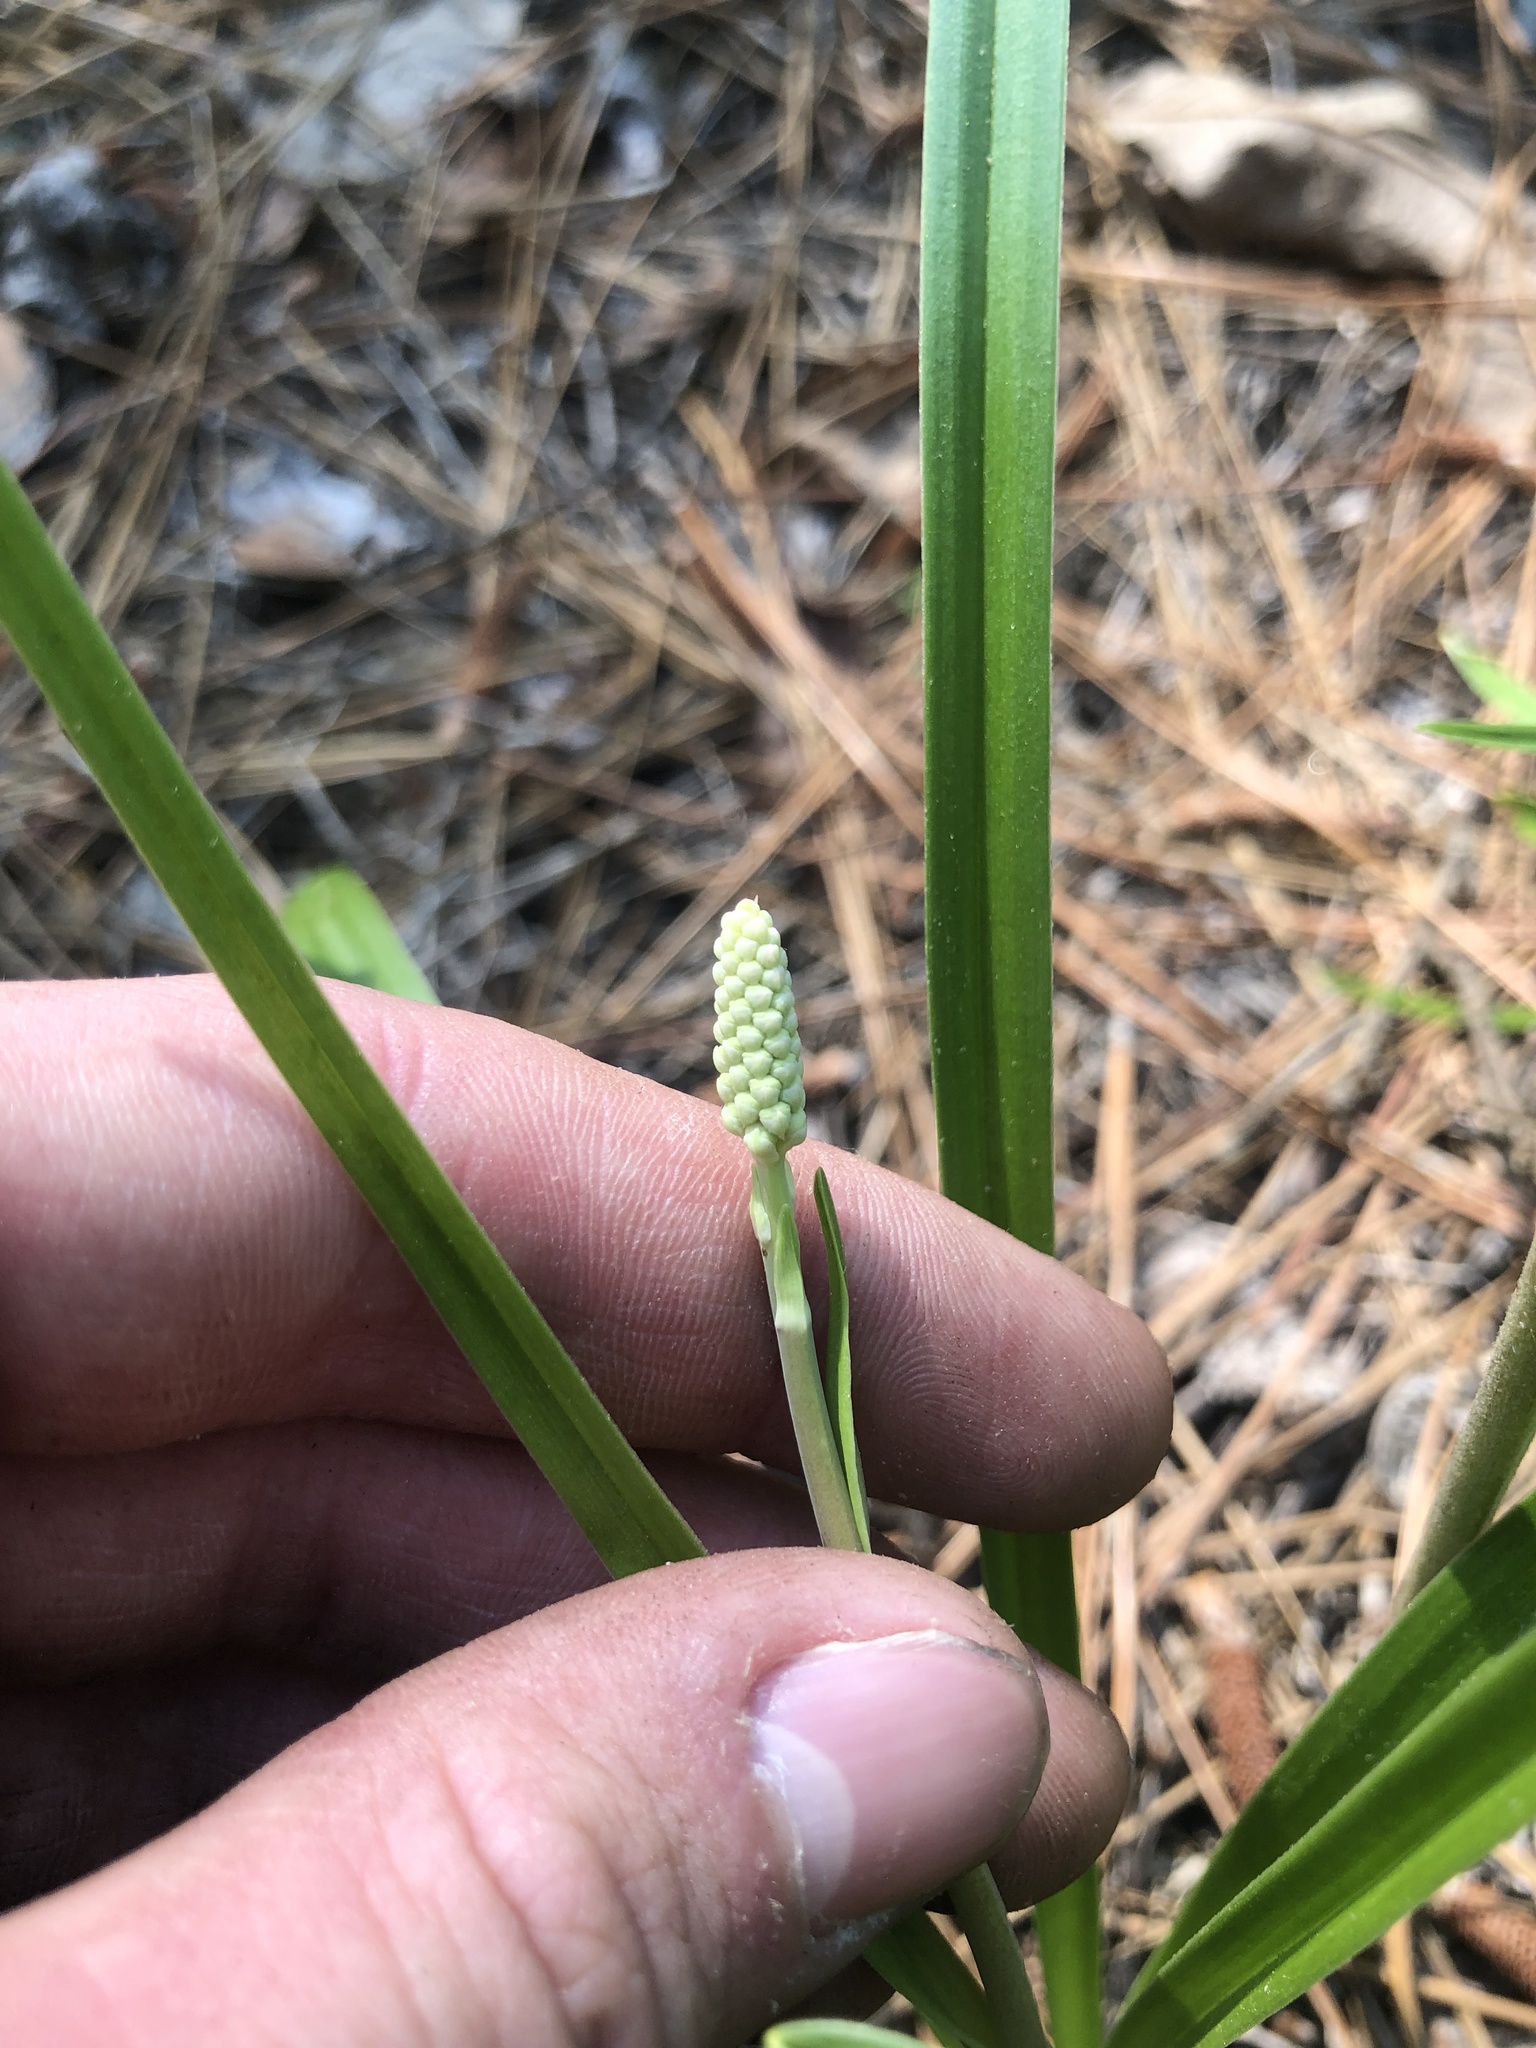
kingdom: Plantae
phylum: Tracheophyta
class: Liliopsida
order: Liliales
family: Melanthiaceae
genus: Amianthium
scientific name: Amianthium muscitoxicum
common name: Fly-poison
